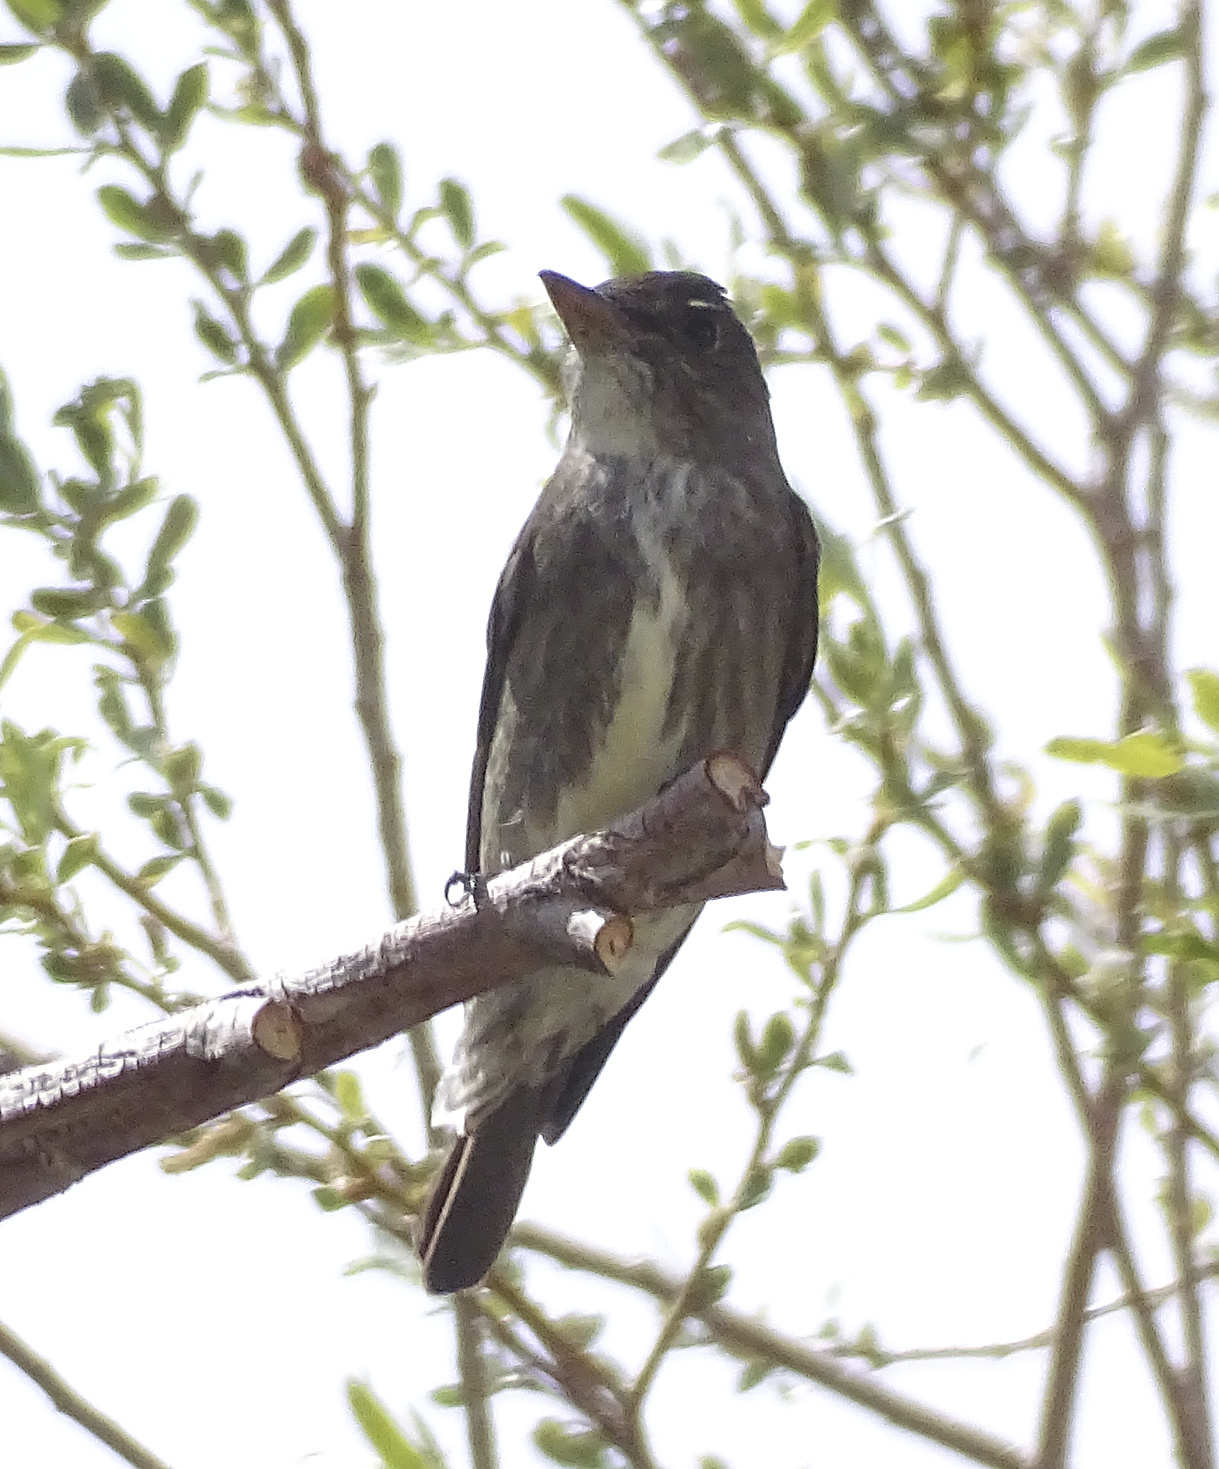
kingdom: Animalia
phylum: Chordata
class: Aves
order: Passeriformes
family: Tyrannidae
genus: Contopus
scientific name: Contopus cooperi
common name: Olive-sided flycatcher
